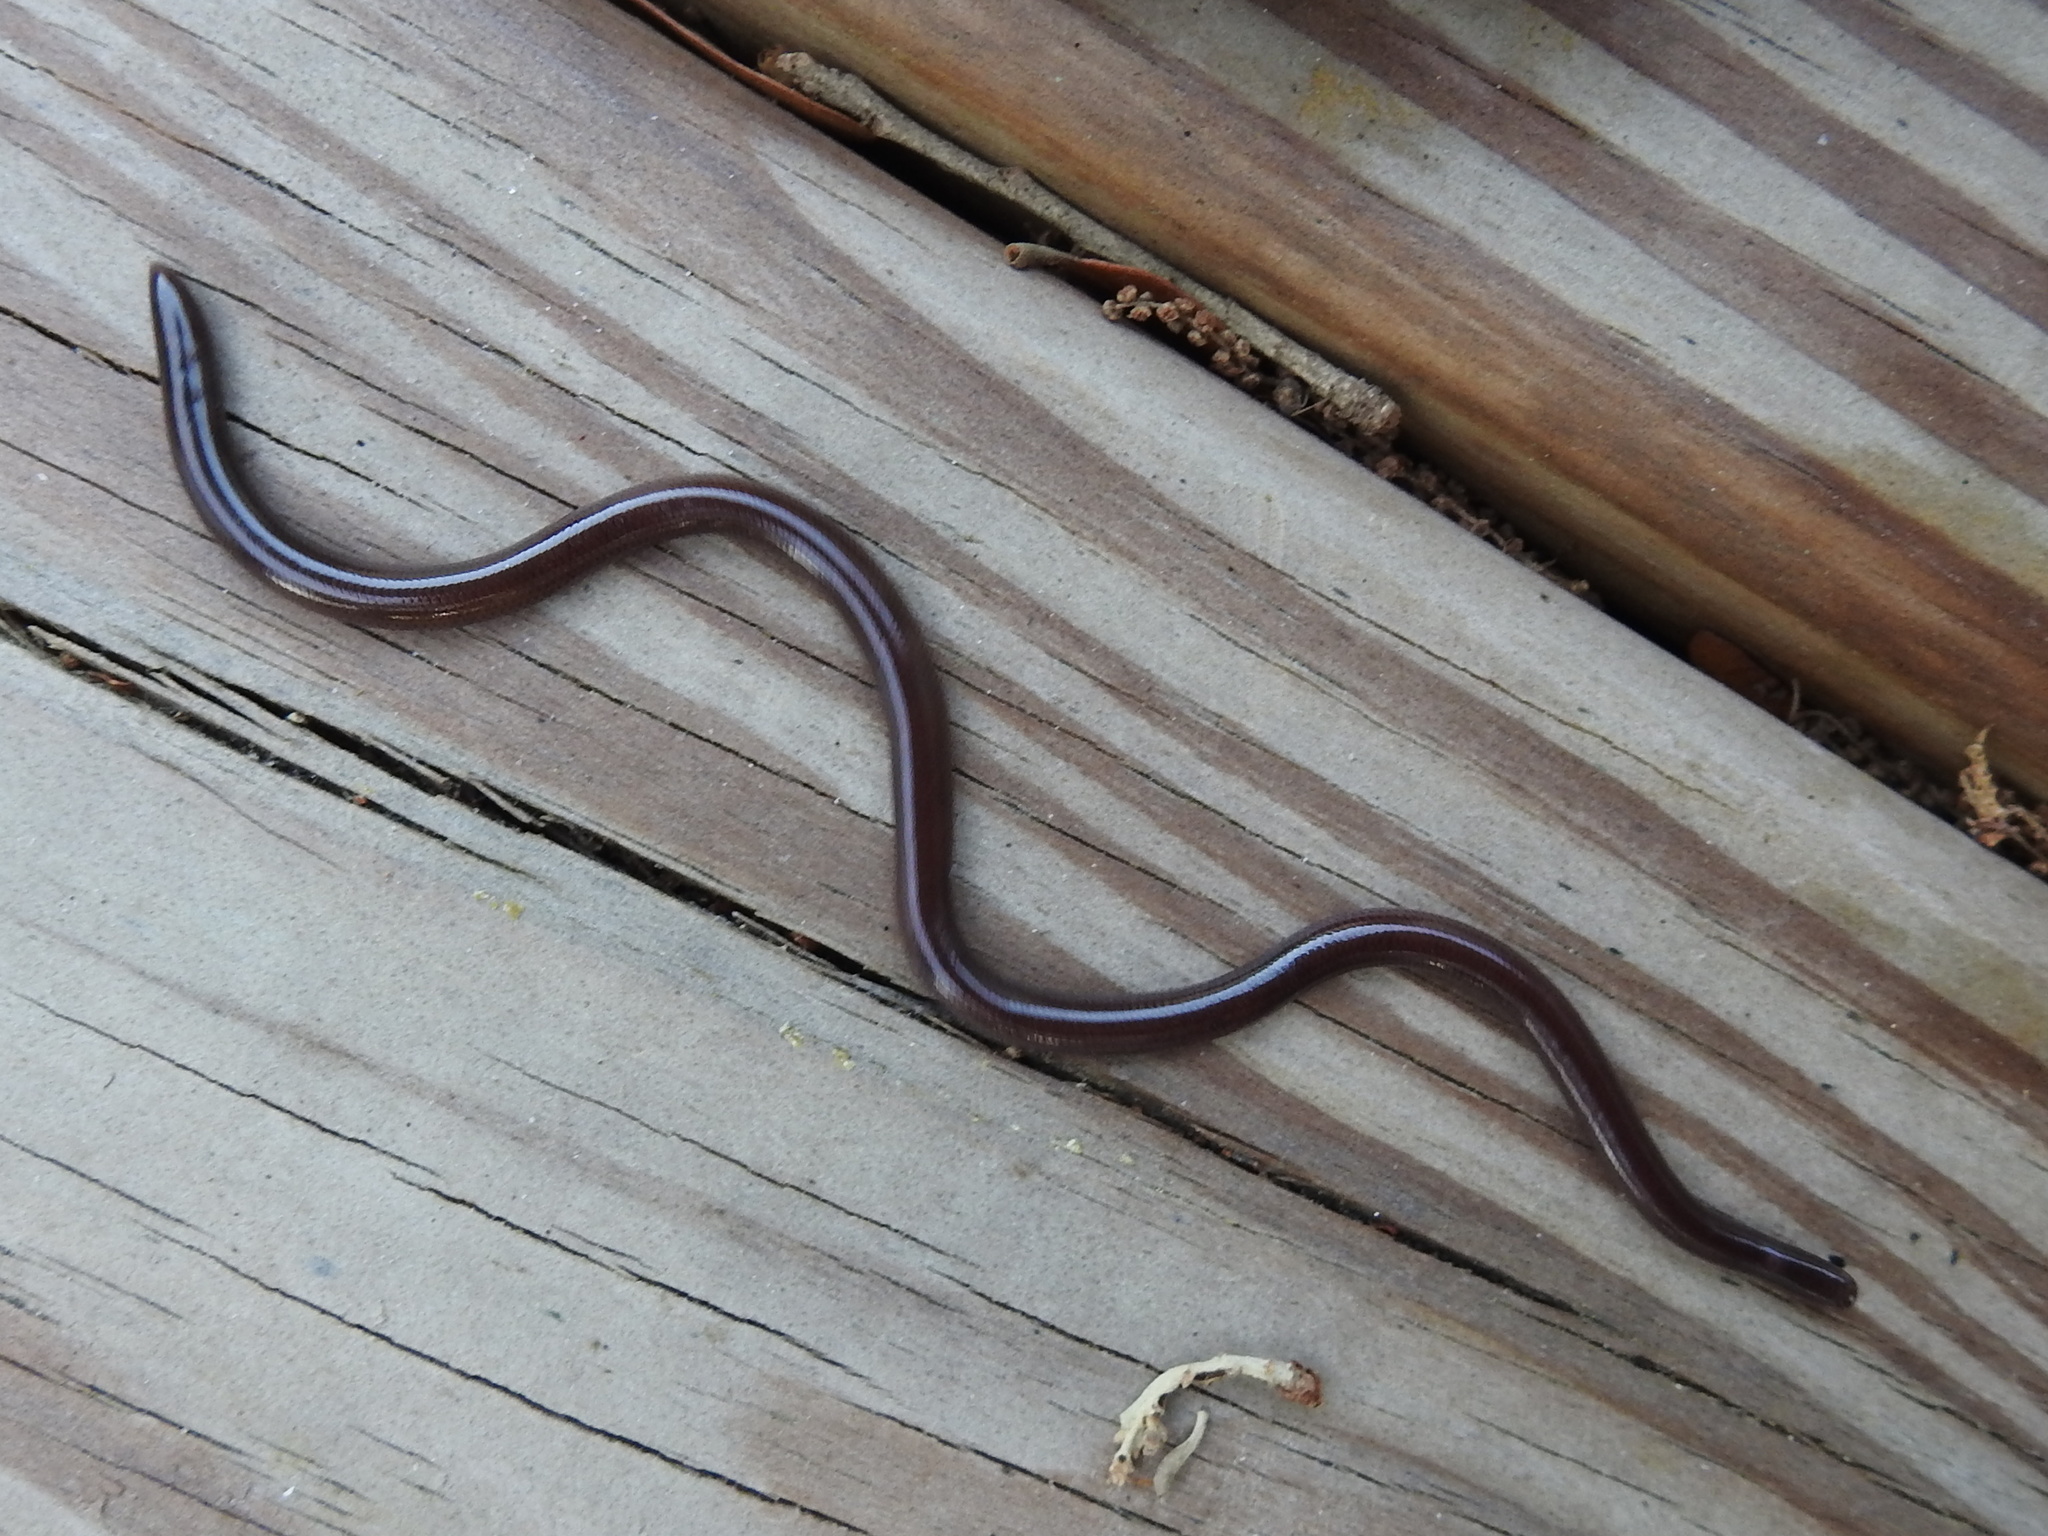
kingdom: Animalia
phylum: Chordata
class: Squamata
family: Typhlopidae
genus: Indotyphlops
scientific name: Indotyphlops braminus
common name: Brahminy blindsnake
